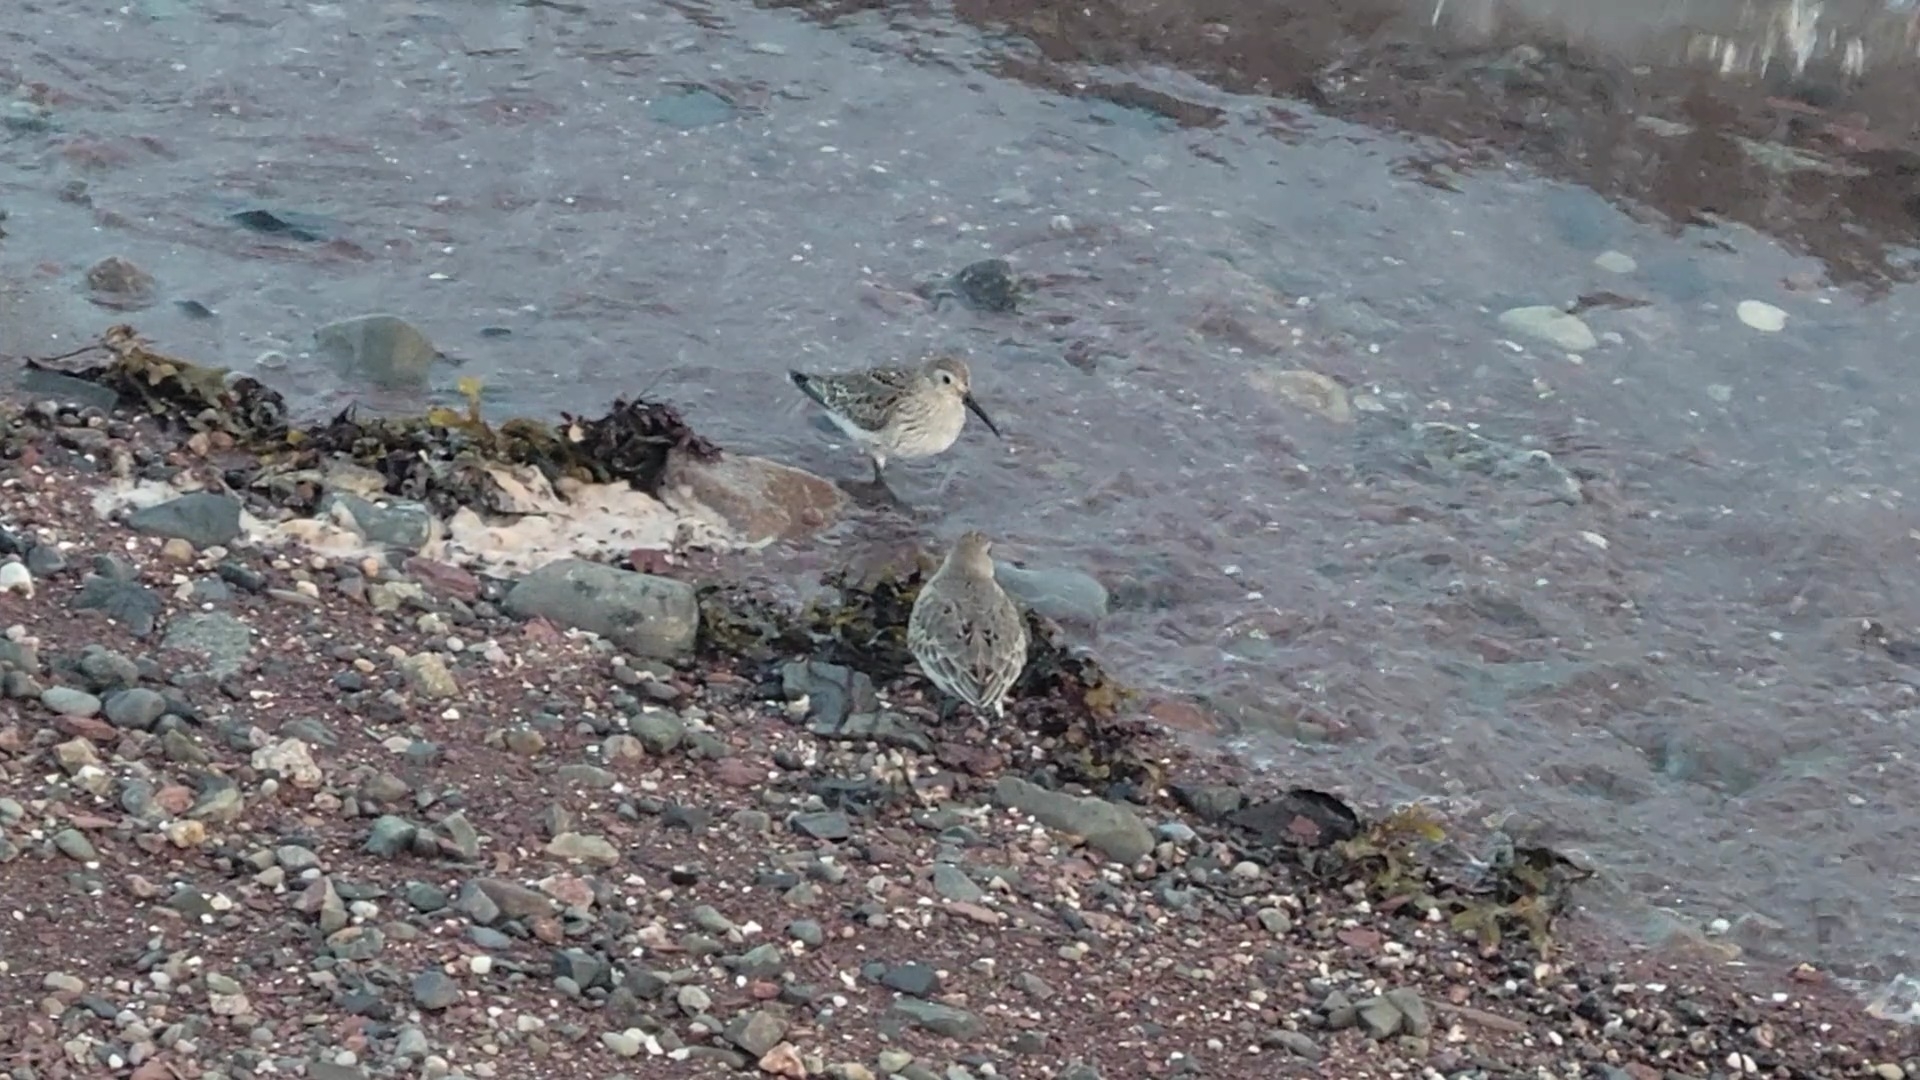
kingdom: Animalia
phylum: Chordata
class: Aves
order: Charadriiformes
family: Scolopacidae
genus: Calidris
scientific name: Calidris alpina
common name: Dunlin
